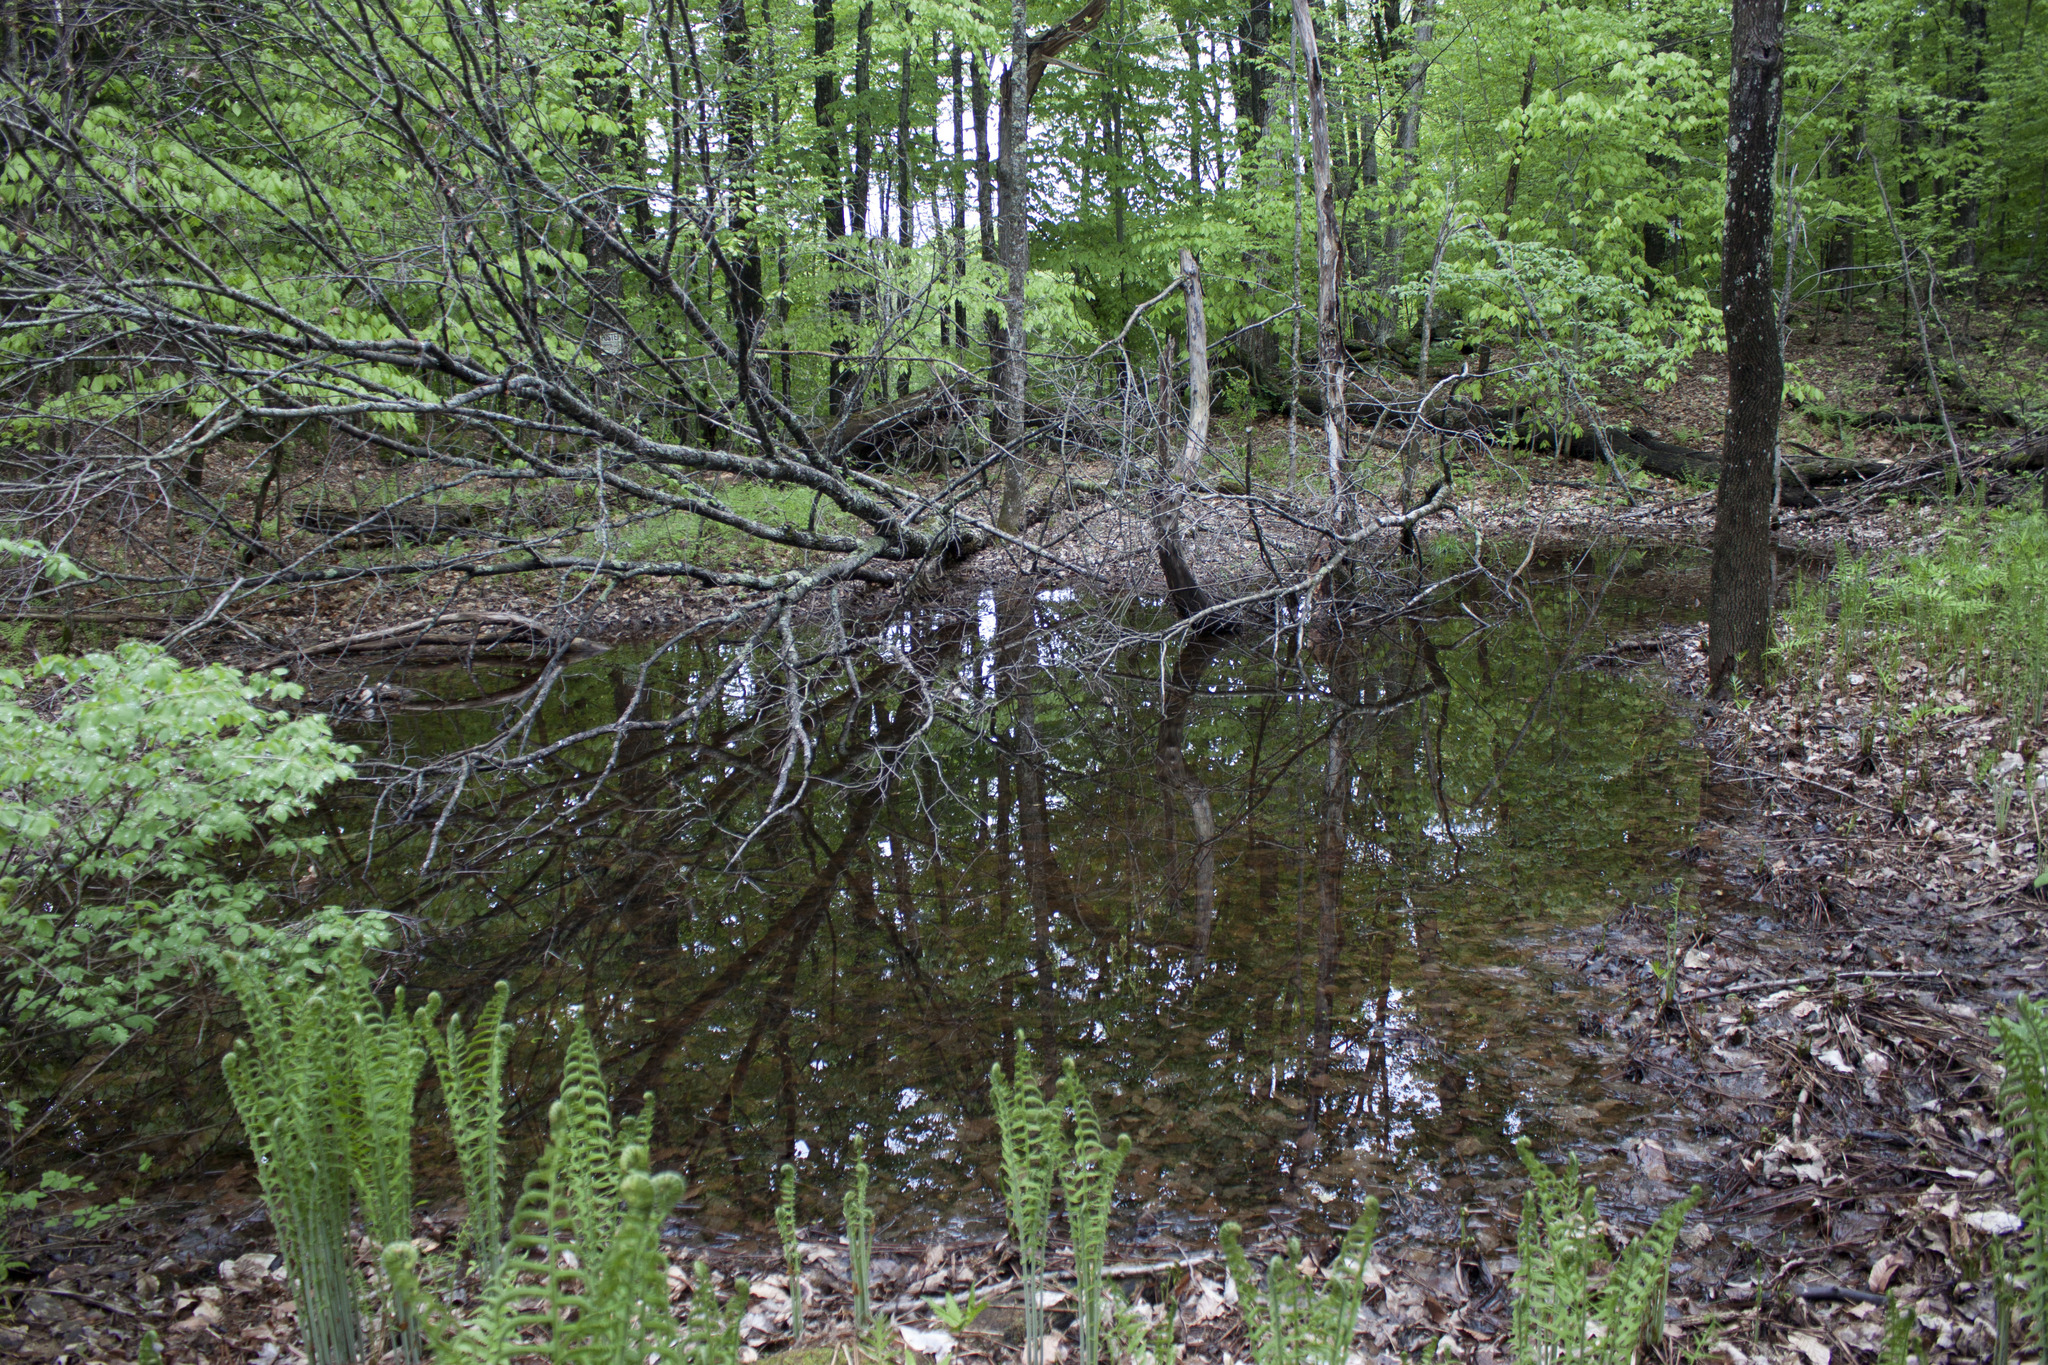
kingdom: Animalia
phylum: Chordata
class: Amphibia
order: Caudata
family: Ambystomatidae
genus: Ambystoma
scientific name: Ambystoma maculatum
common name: Spotted salamander
